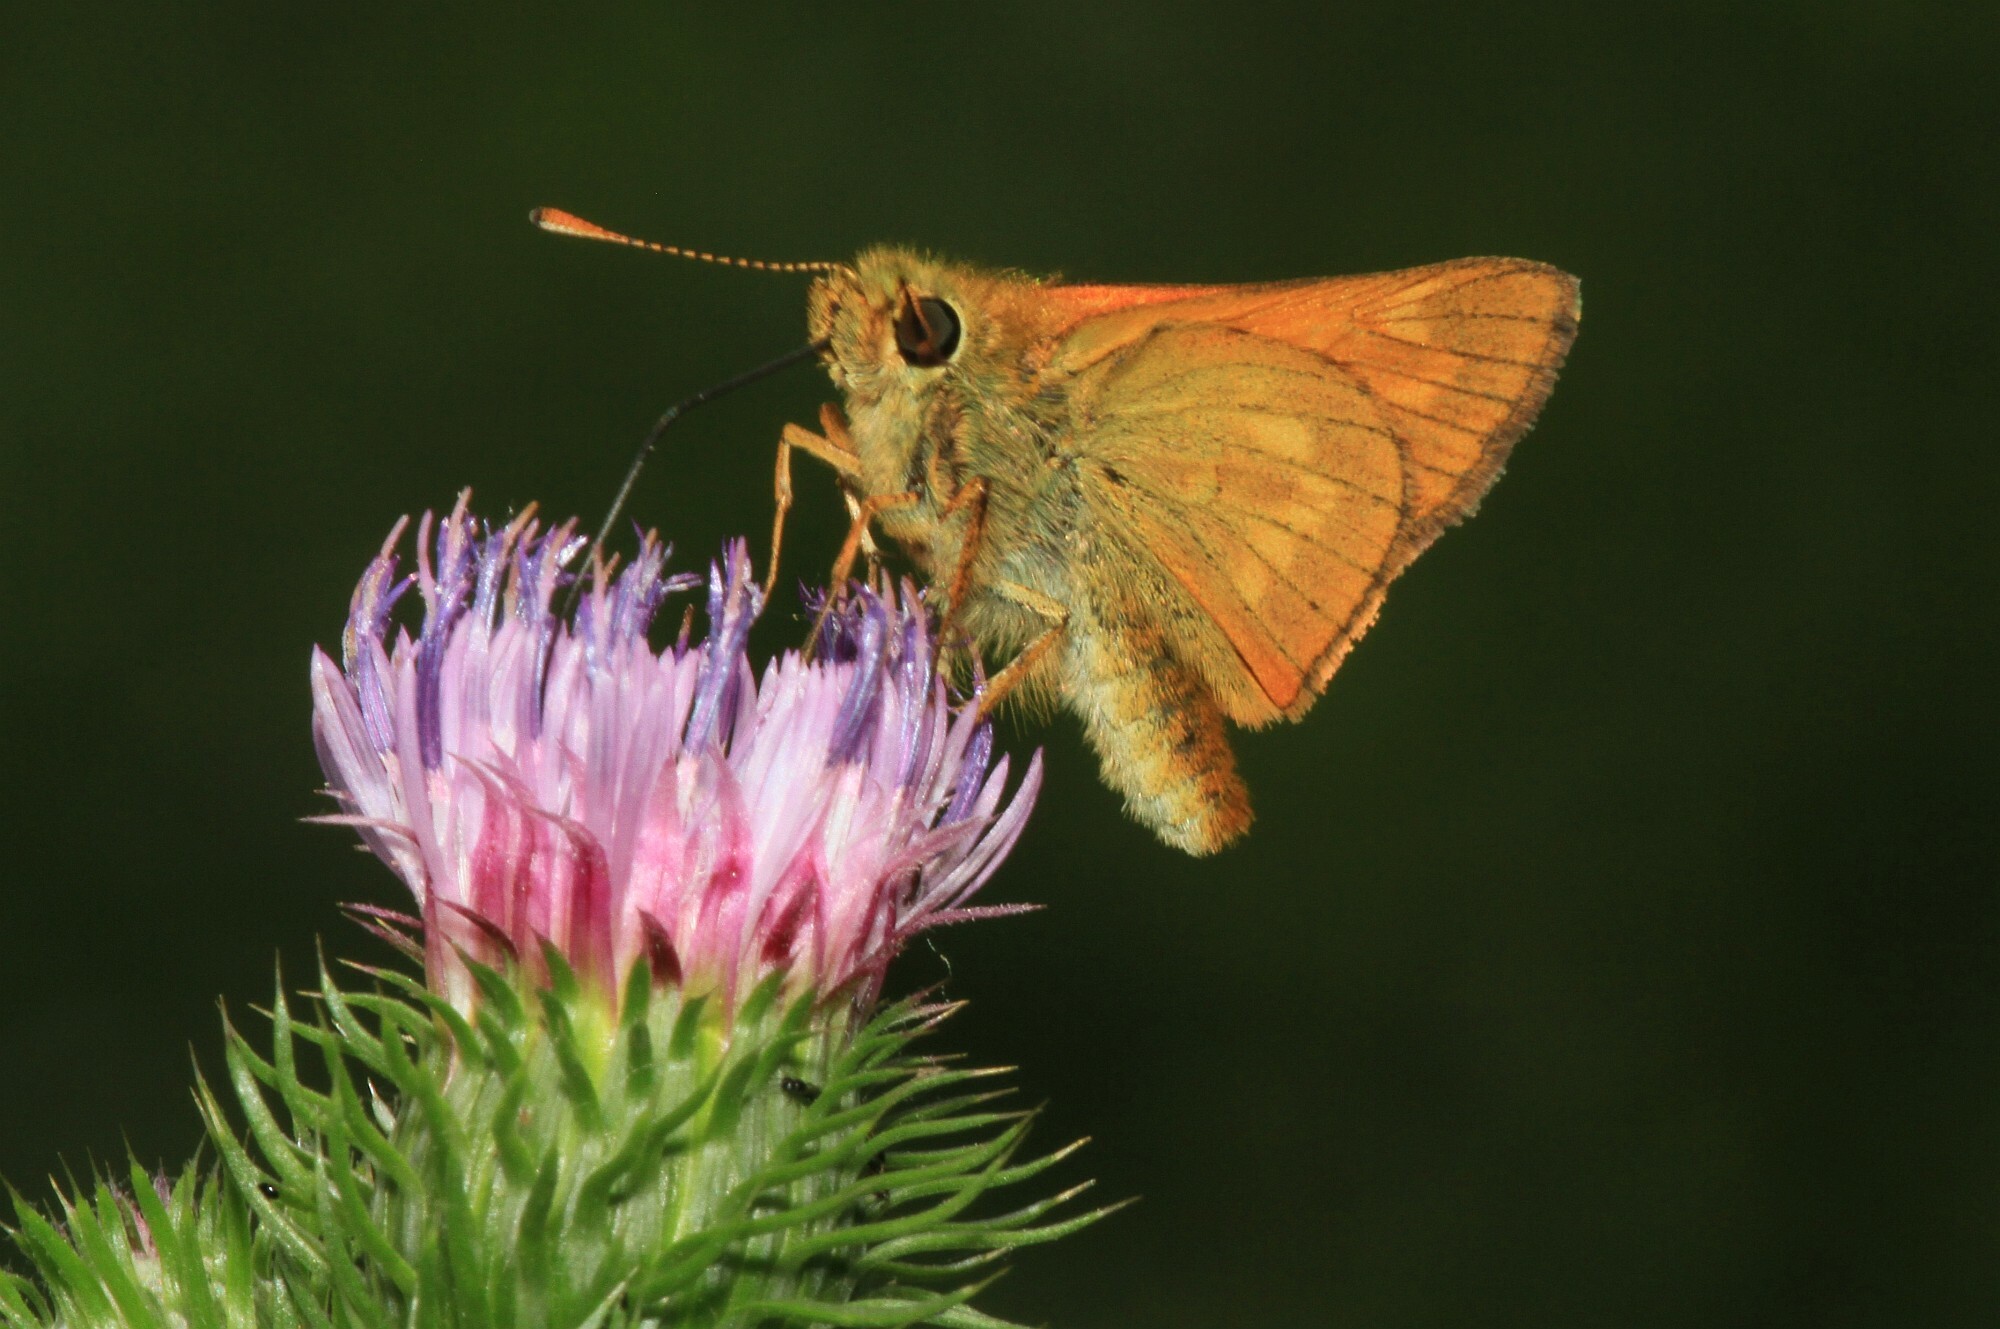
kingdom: Animalia
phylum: Arthropoda
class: Insecta
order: Lepidoptera
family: Hesperiidae
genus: Ochlodes
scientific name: Ochlodes venata
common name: Large skipper
